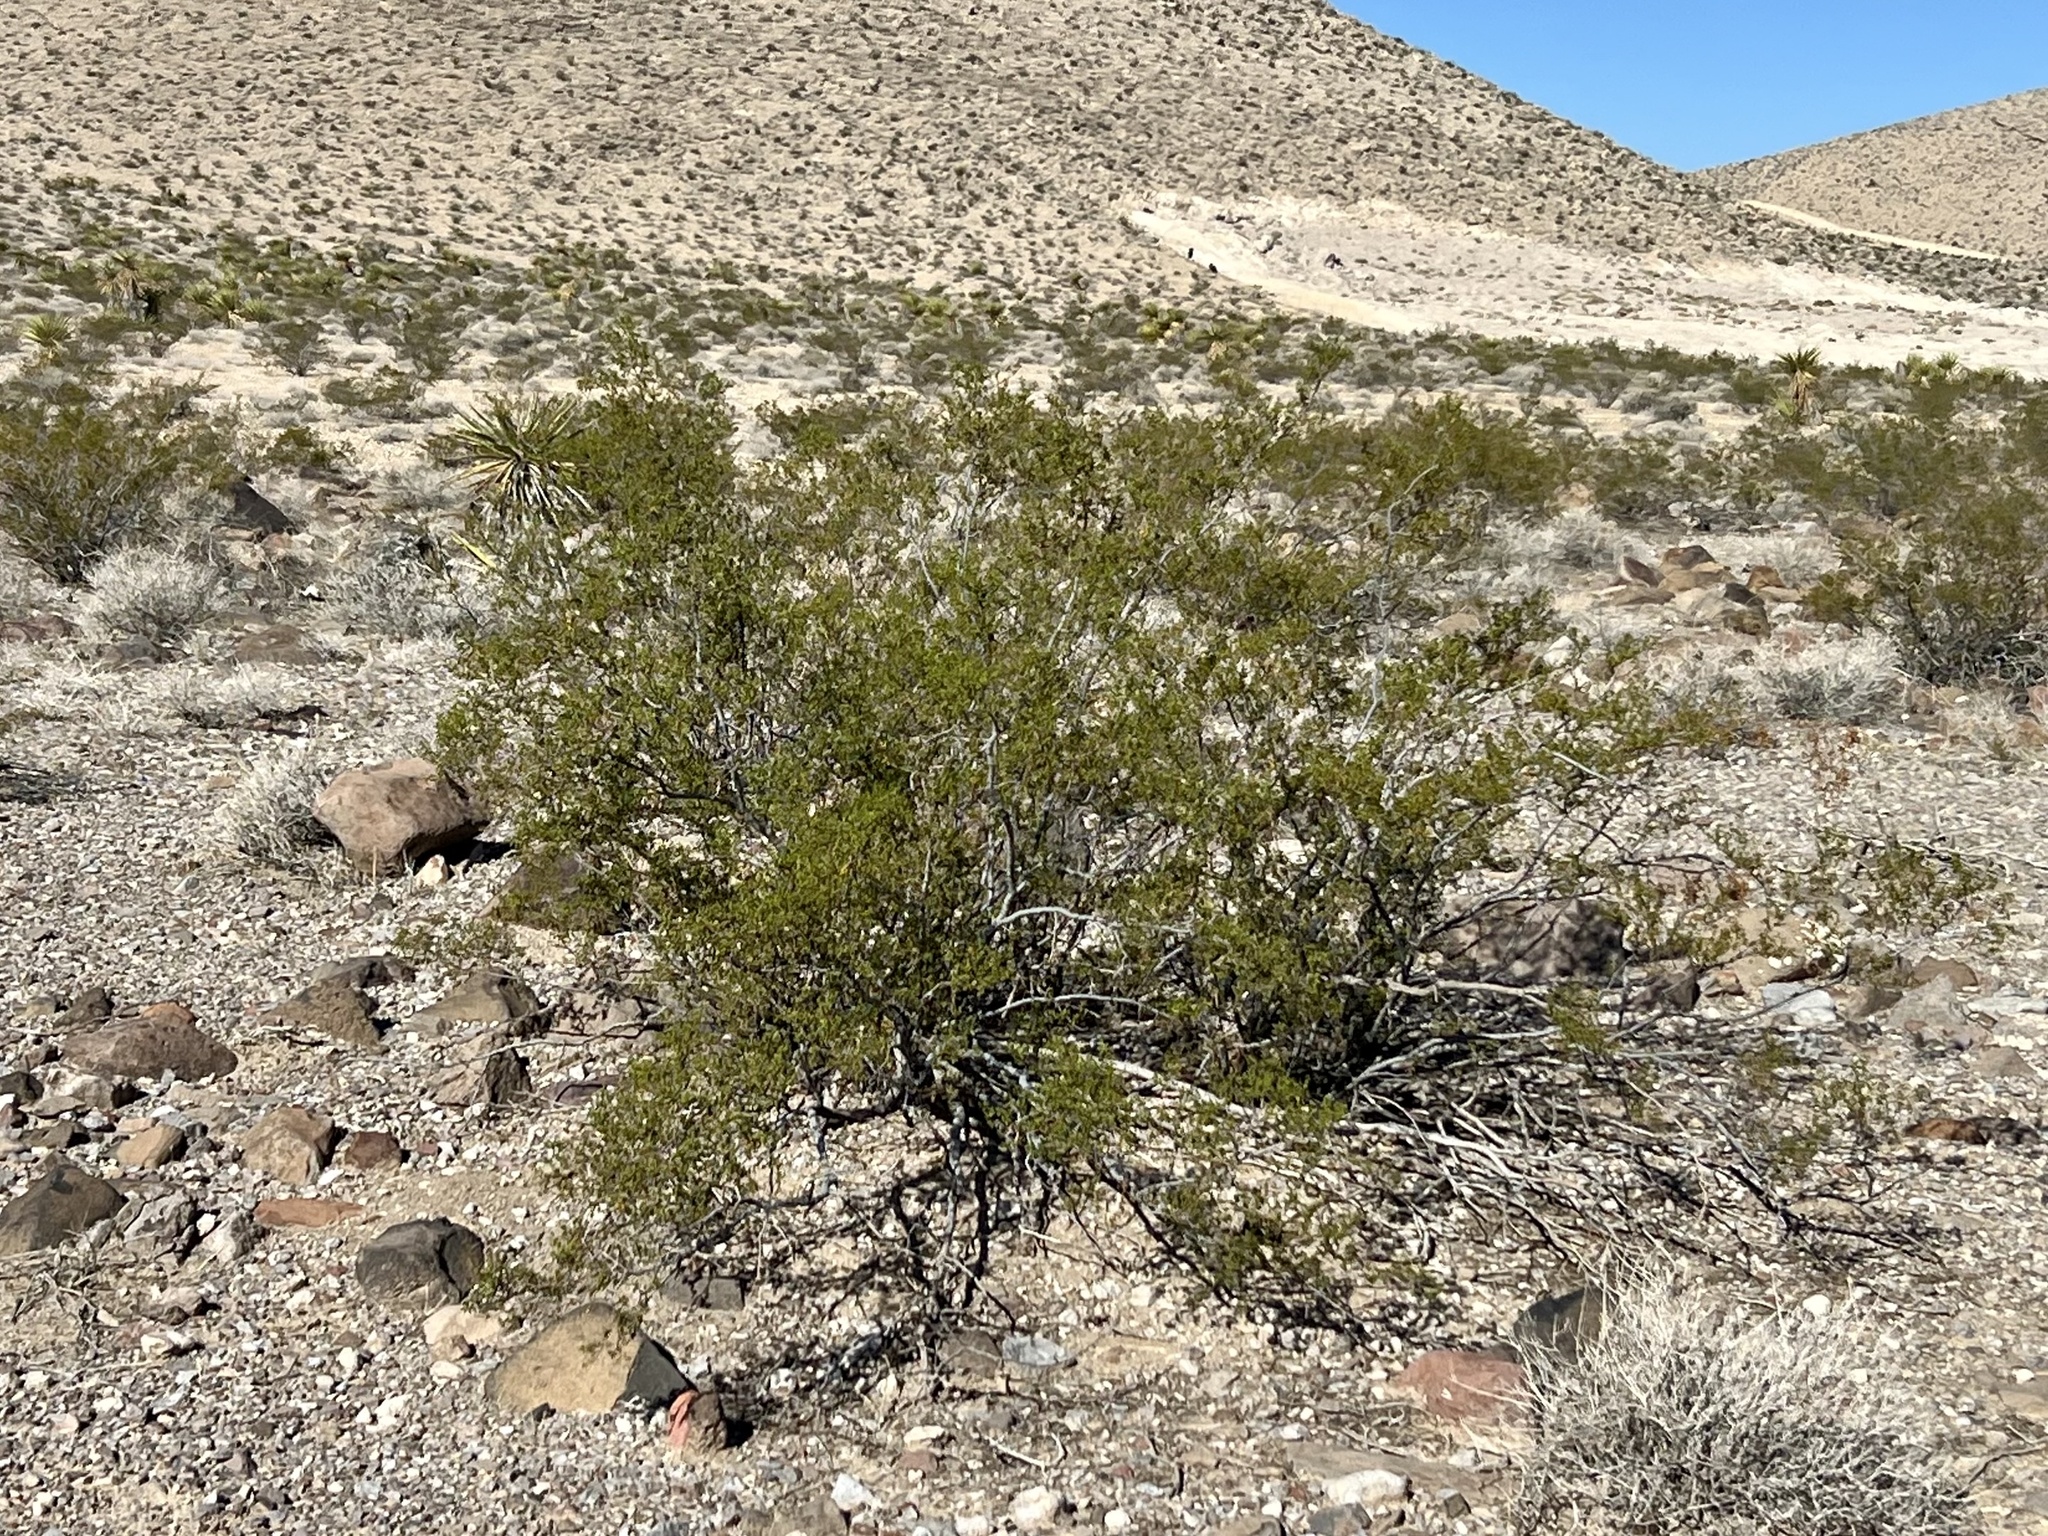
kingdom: Plantae
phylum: Tracheophyta
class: Magnoliopsida
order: Zygophyllales
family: Zygophyllaceae
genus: Larrea
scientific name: Larrea tridentata
